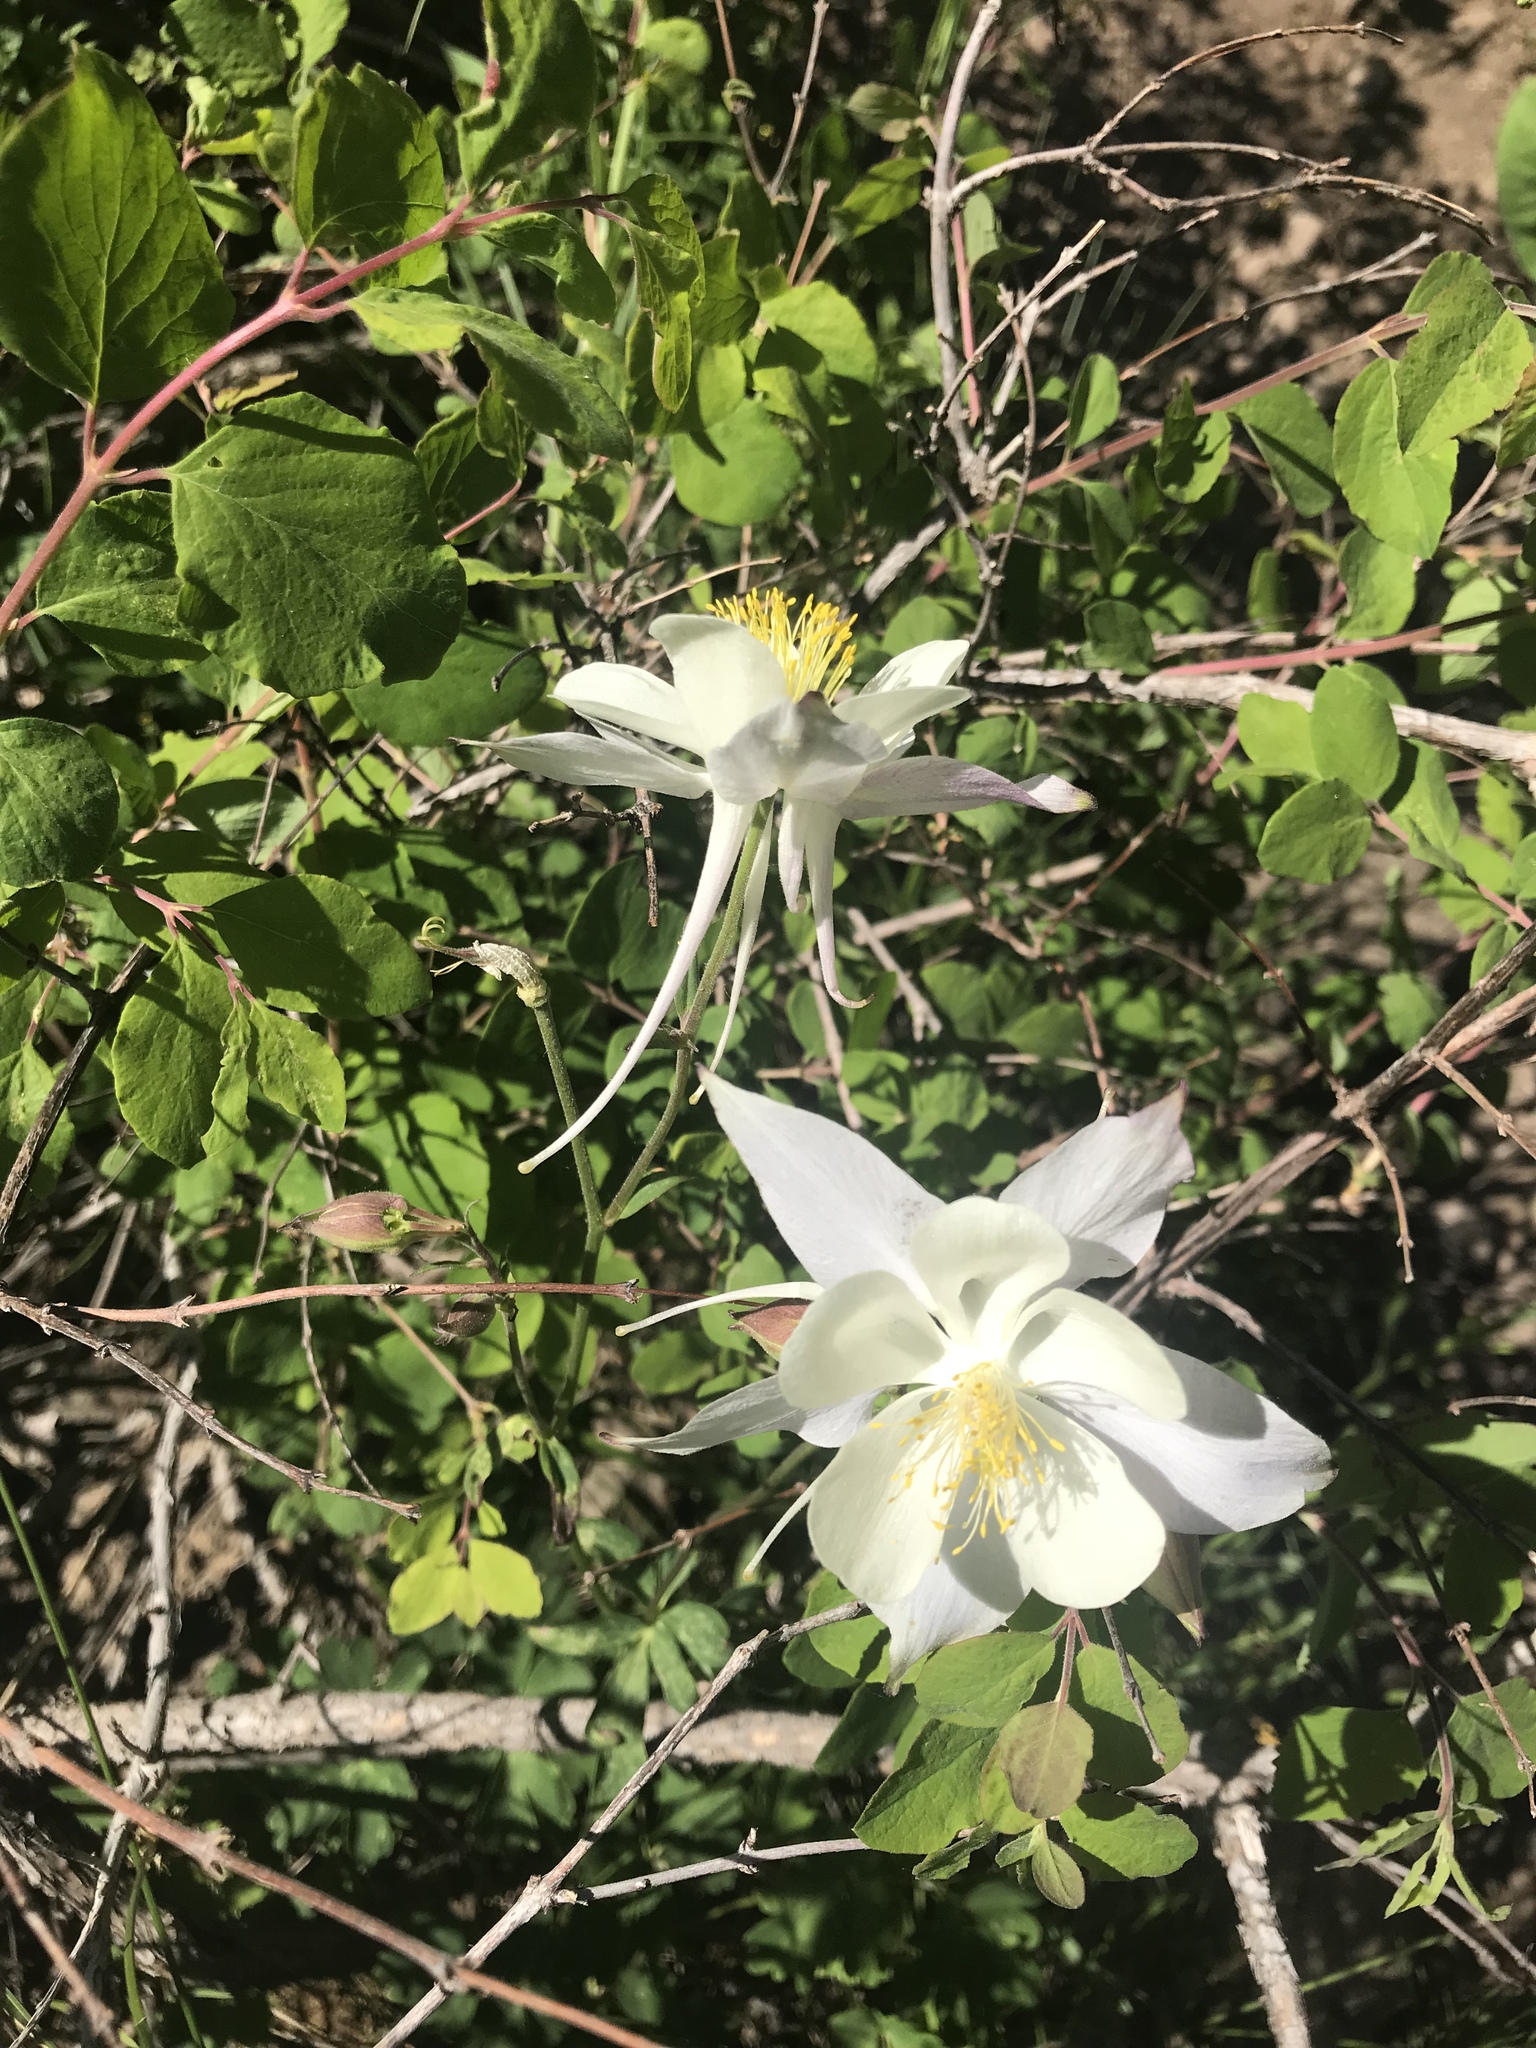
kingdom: Plantae
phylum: Tracheophyta
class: Magnoliopsida
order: Ranunculales
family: Ranunculaceae
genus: Aquilegia
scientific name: Aquilegia coerulea
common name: Rocky mountain columbine
